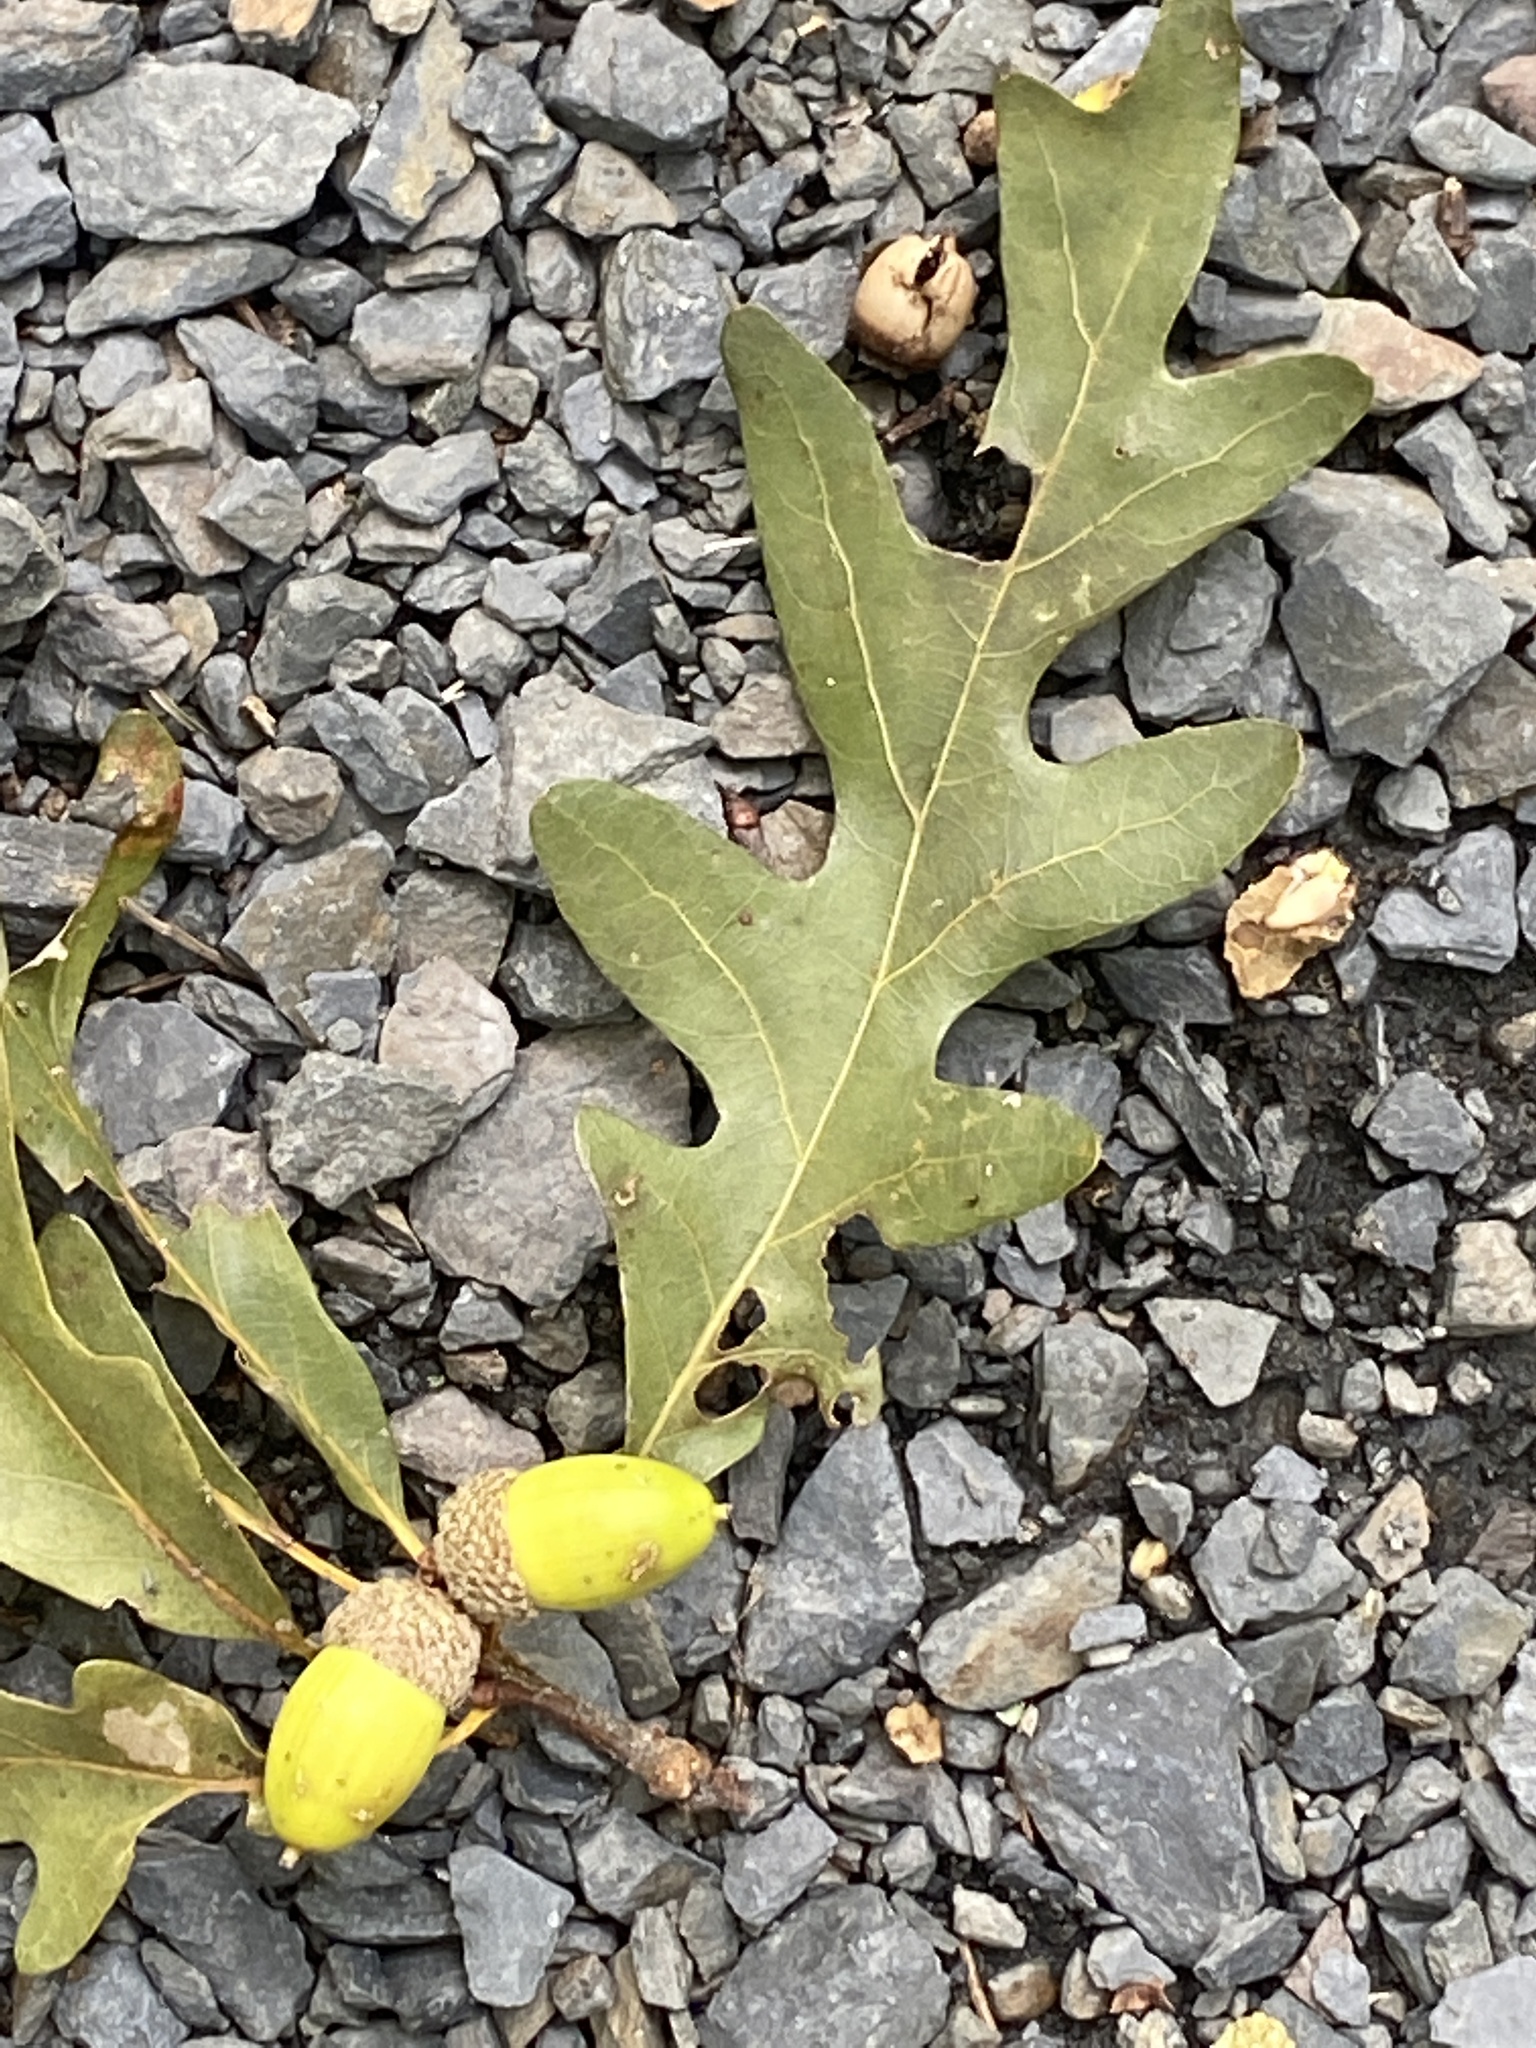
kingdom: Plantae
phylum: Tracheophyta
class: Magnoliopsida
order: Fagales
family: Fagaceae
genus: Quercus
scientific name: Quercus alba
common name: White oak
